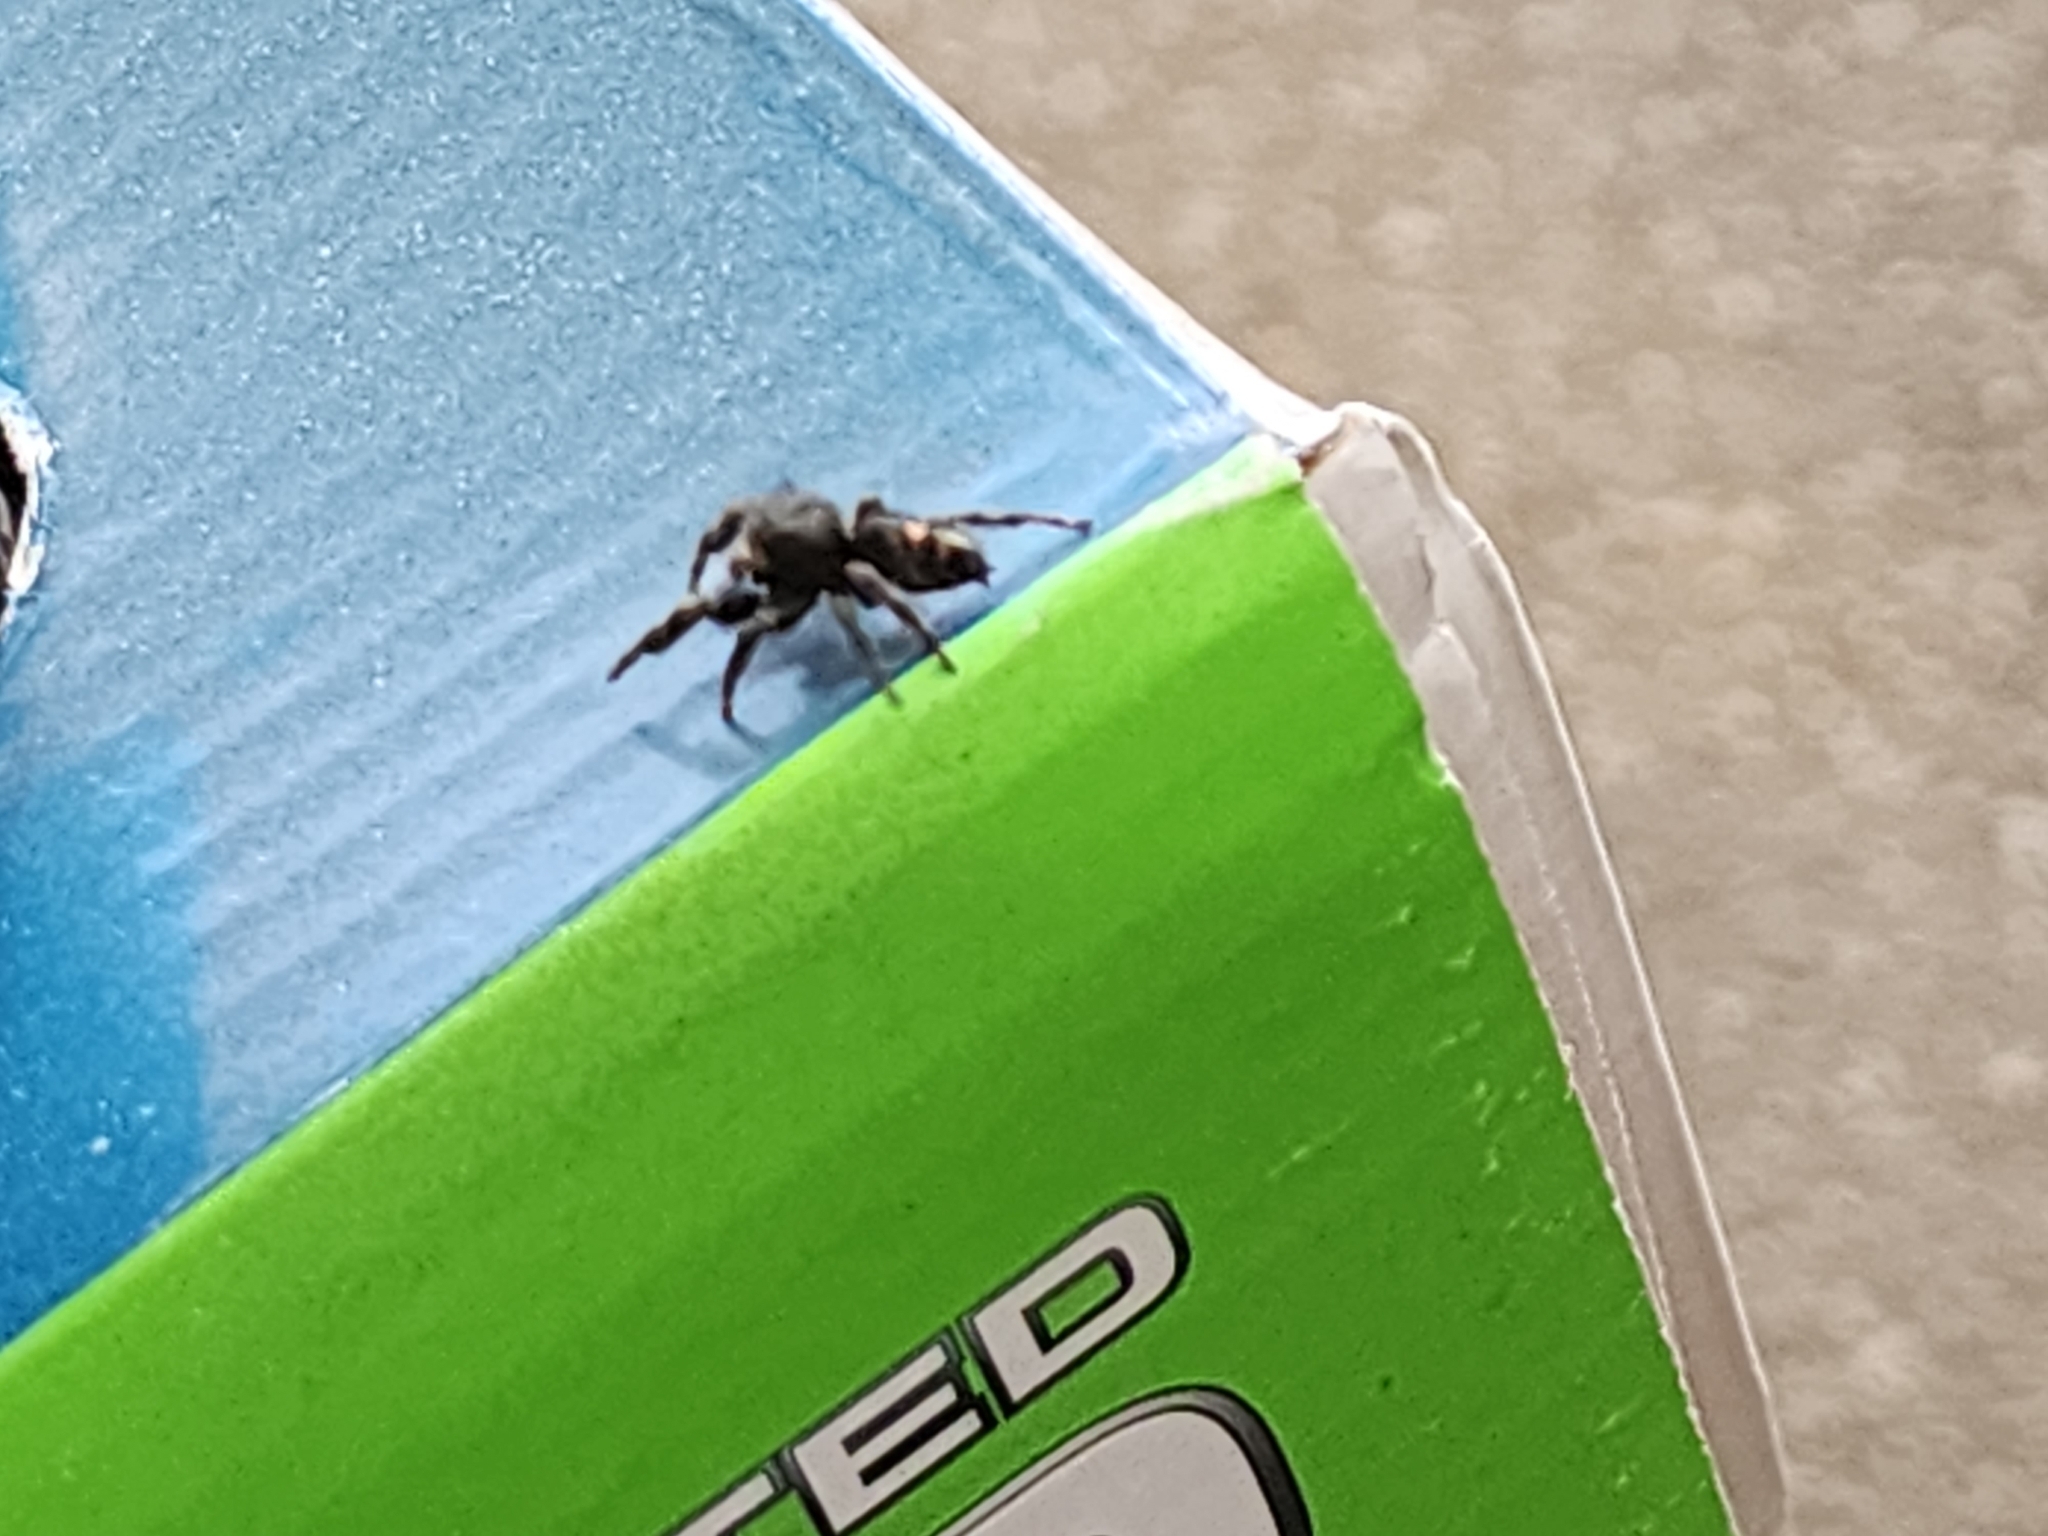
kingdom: Animalia
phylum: Arthropoda
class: Arachnida
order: Araneae
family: Salticidae
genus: Phidippus
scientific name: Phidippus audax
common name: Bold jumper
